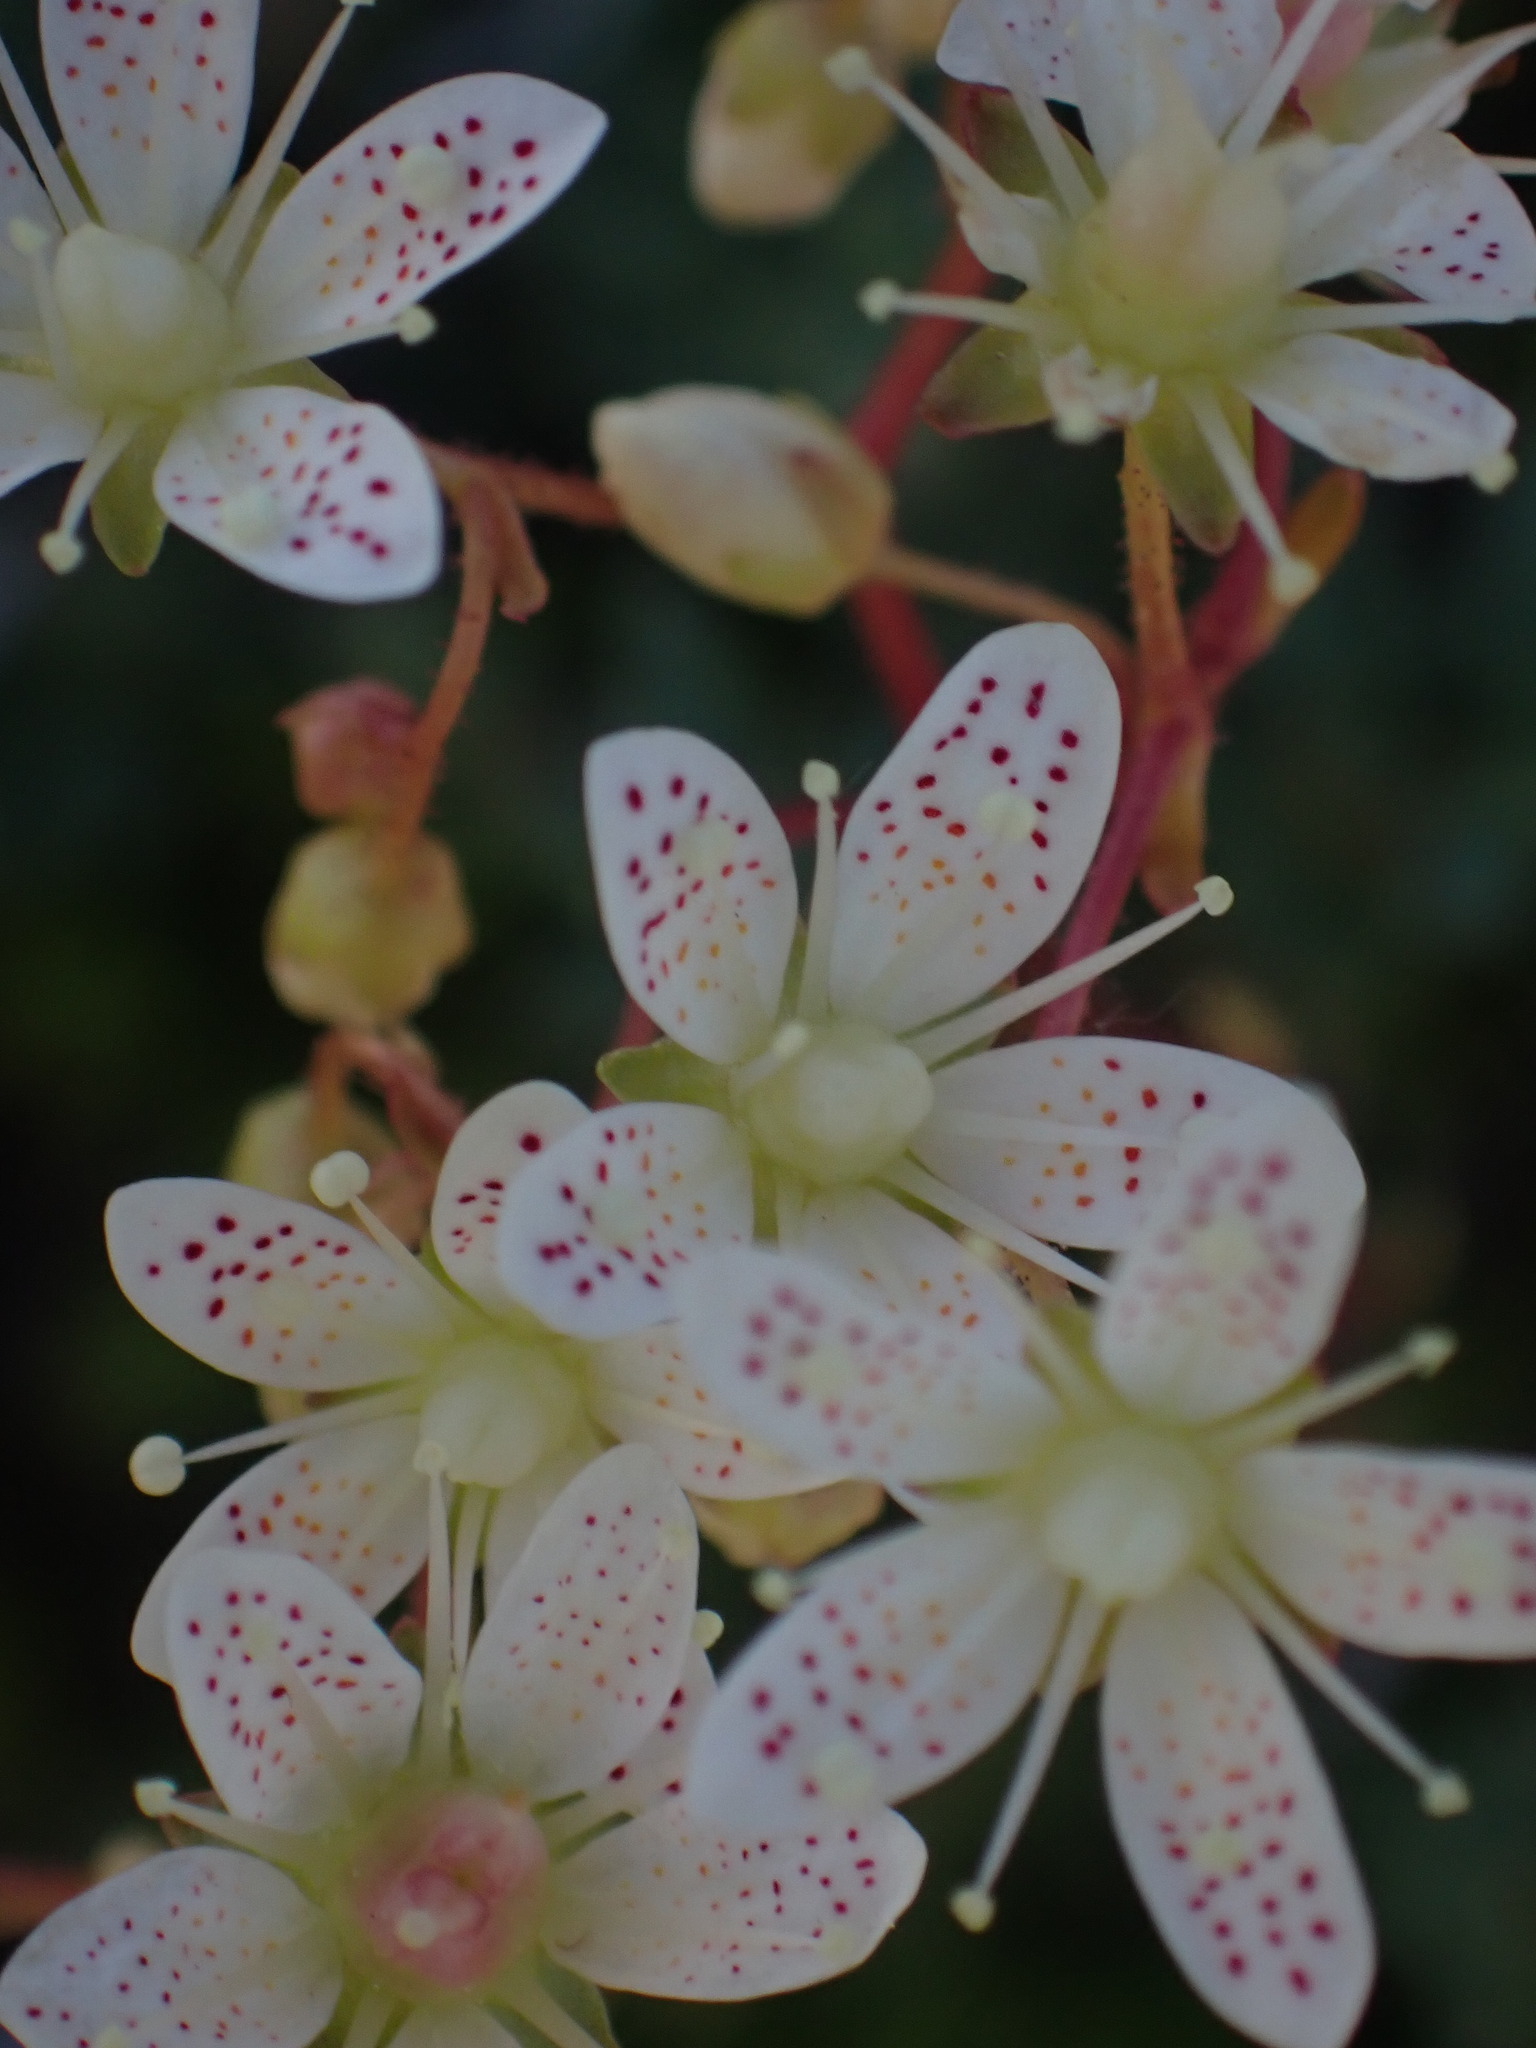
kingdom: Plantae
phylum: Tracheophyta
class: Magnoliopsida
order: Saxifragales
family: Saxifragaceae
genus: Saxifraga
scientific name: Saxifraga bronchialis
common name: Matted saxifrage
